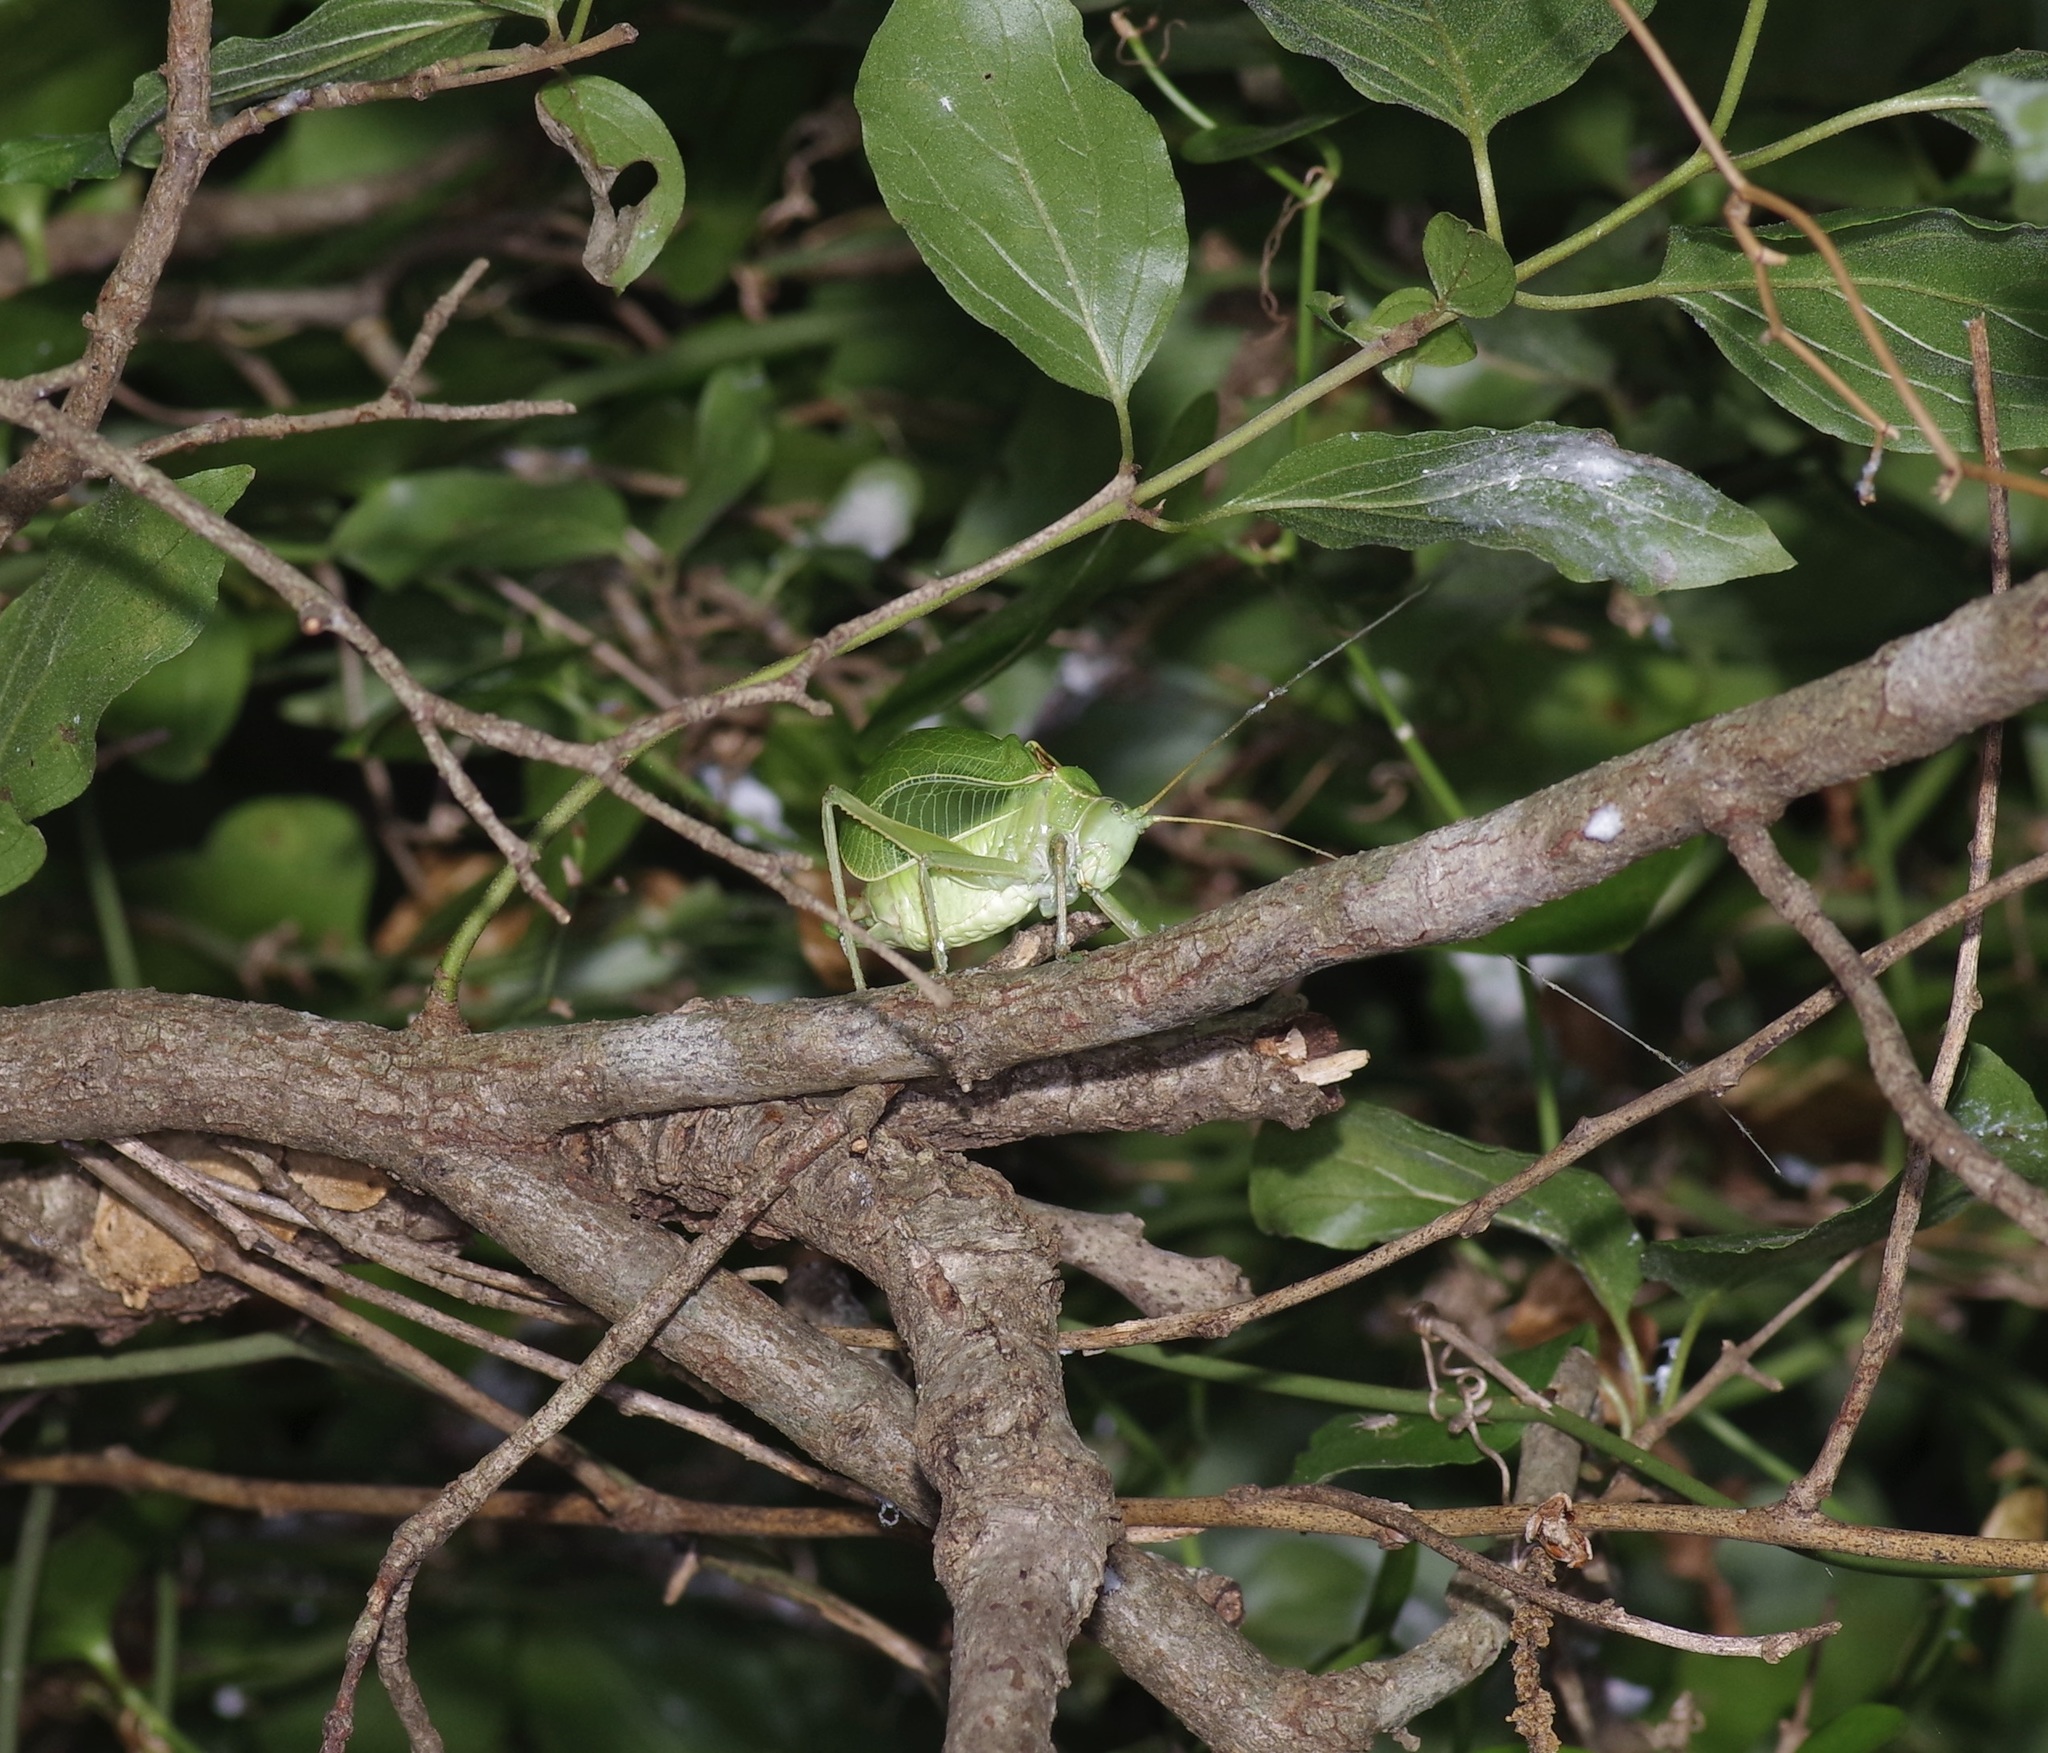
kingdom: Animalia
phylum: Arthropoda
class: Insecta
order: Orthoptera
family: Tettigoniidae
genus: Paracyrtophyllus
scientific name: Paracyrtophyllus robustus
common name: Central texas leaf katydid
